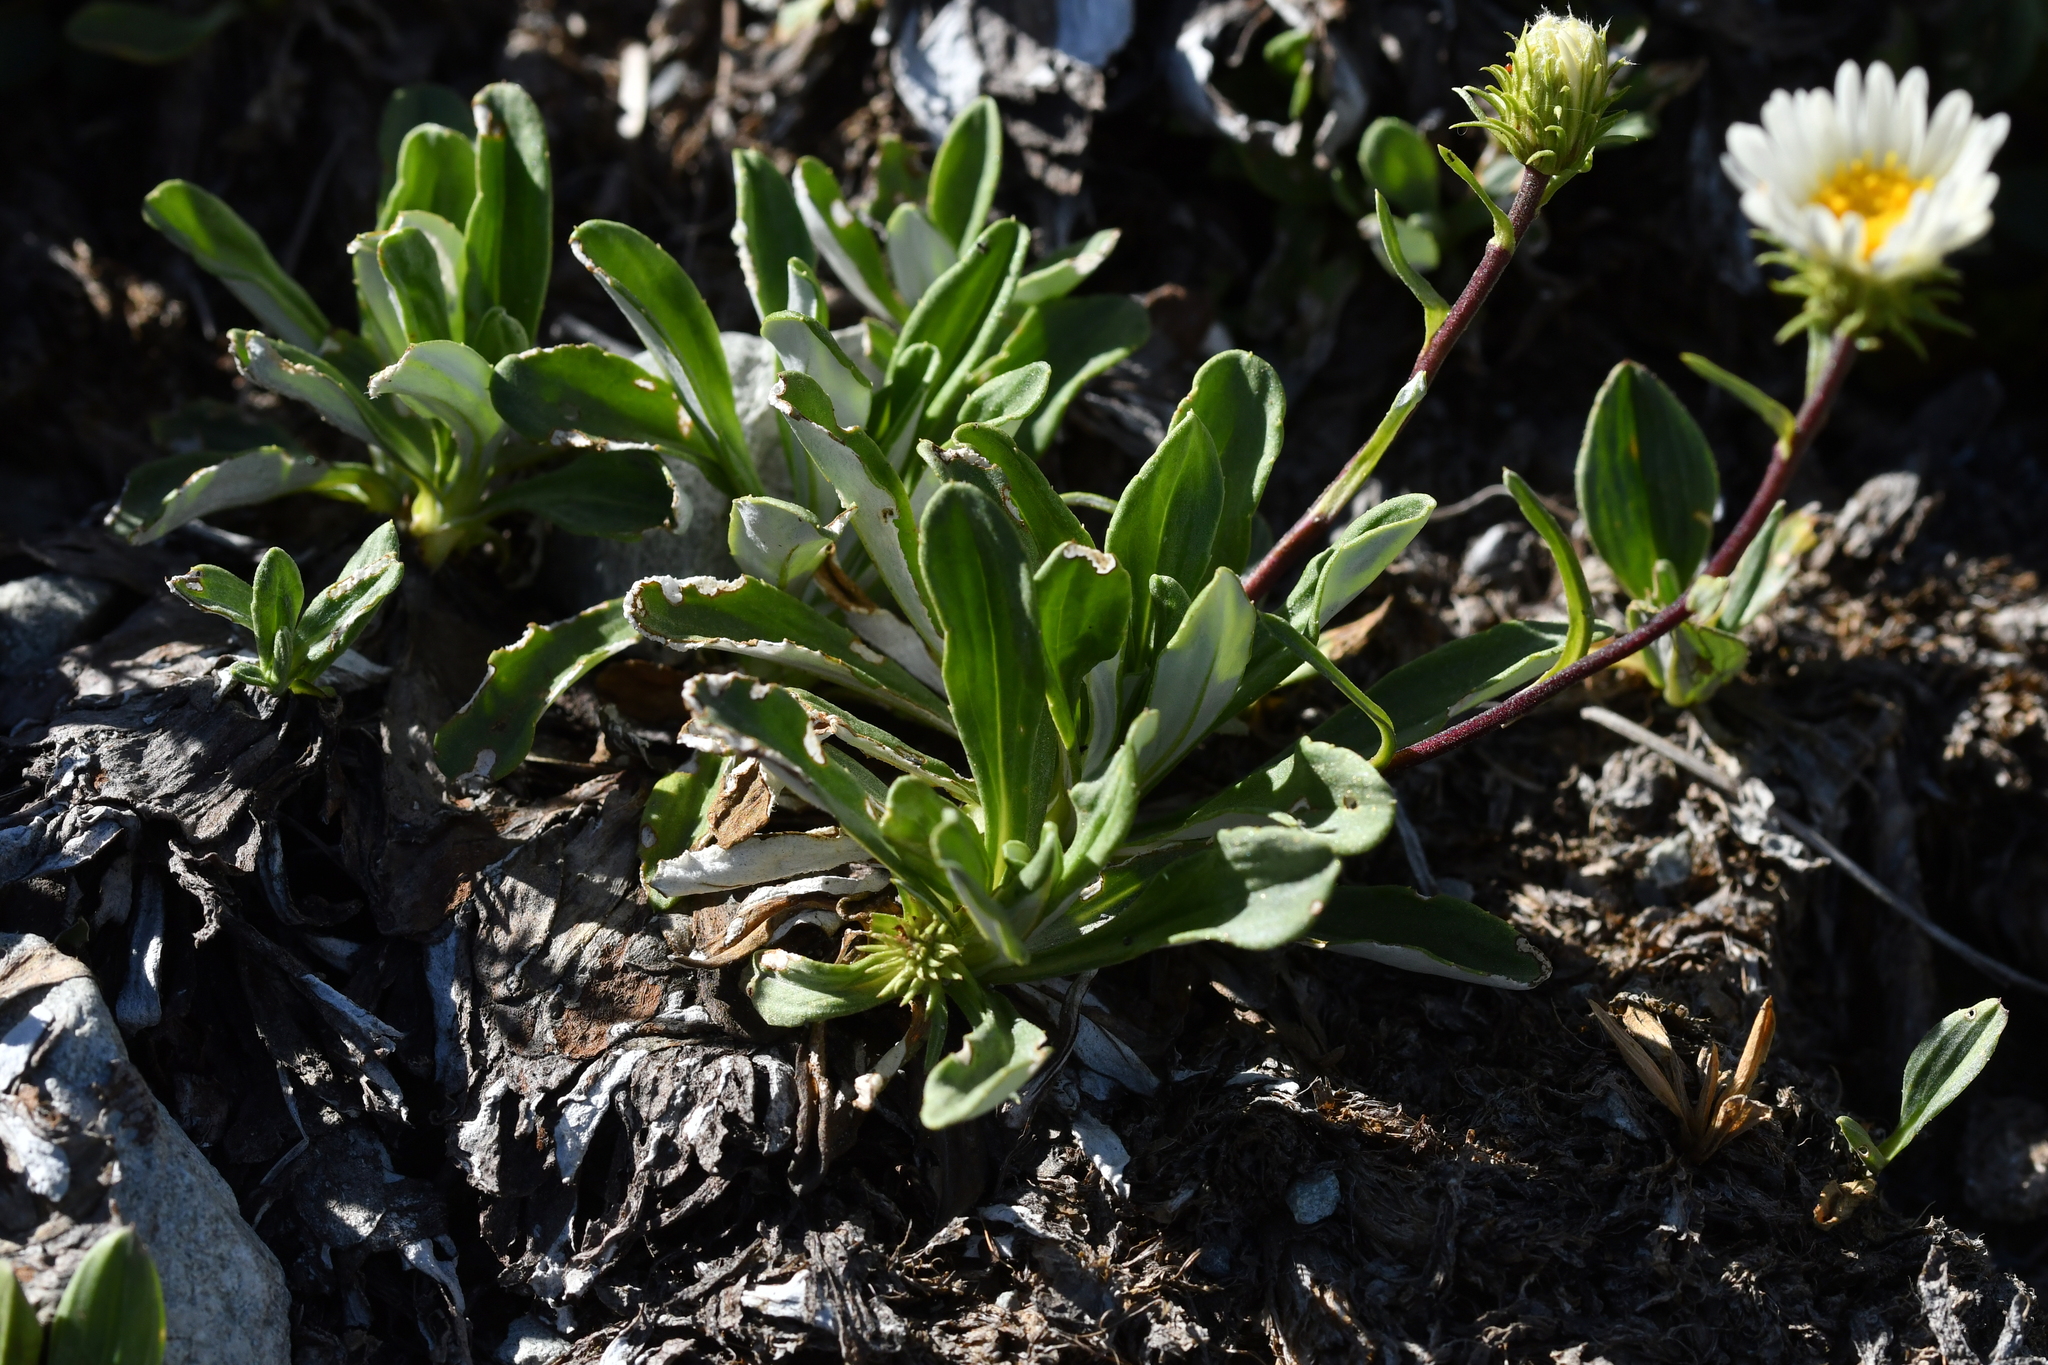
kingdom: Plantae
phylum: Tracheophyta
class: Magnoliopsida
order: Asterales
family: Asteraceae
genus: Celmisia
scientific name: Celmisia durietzii
